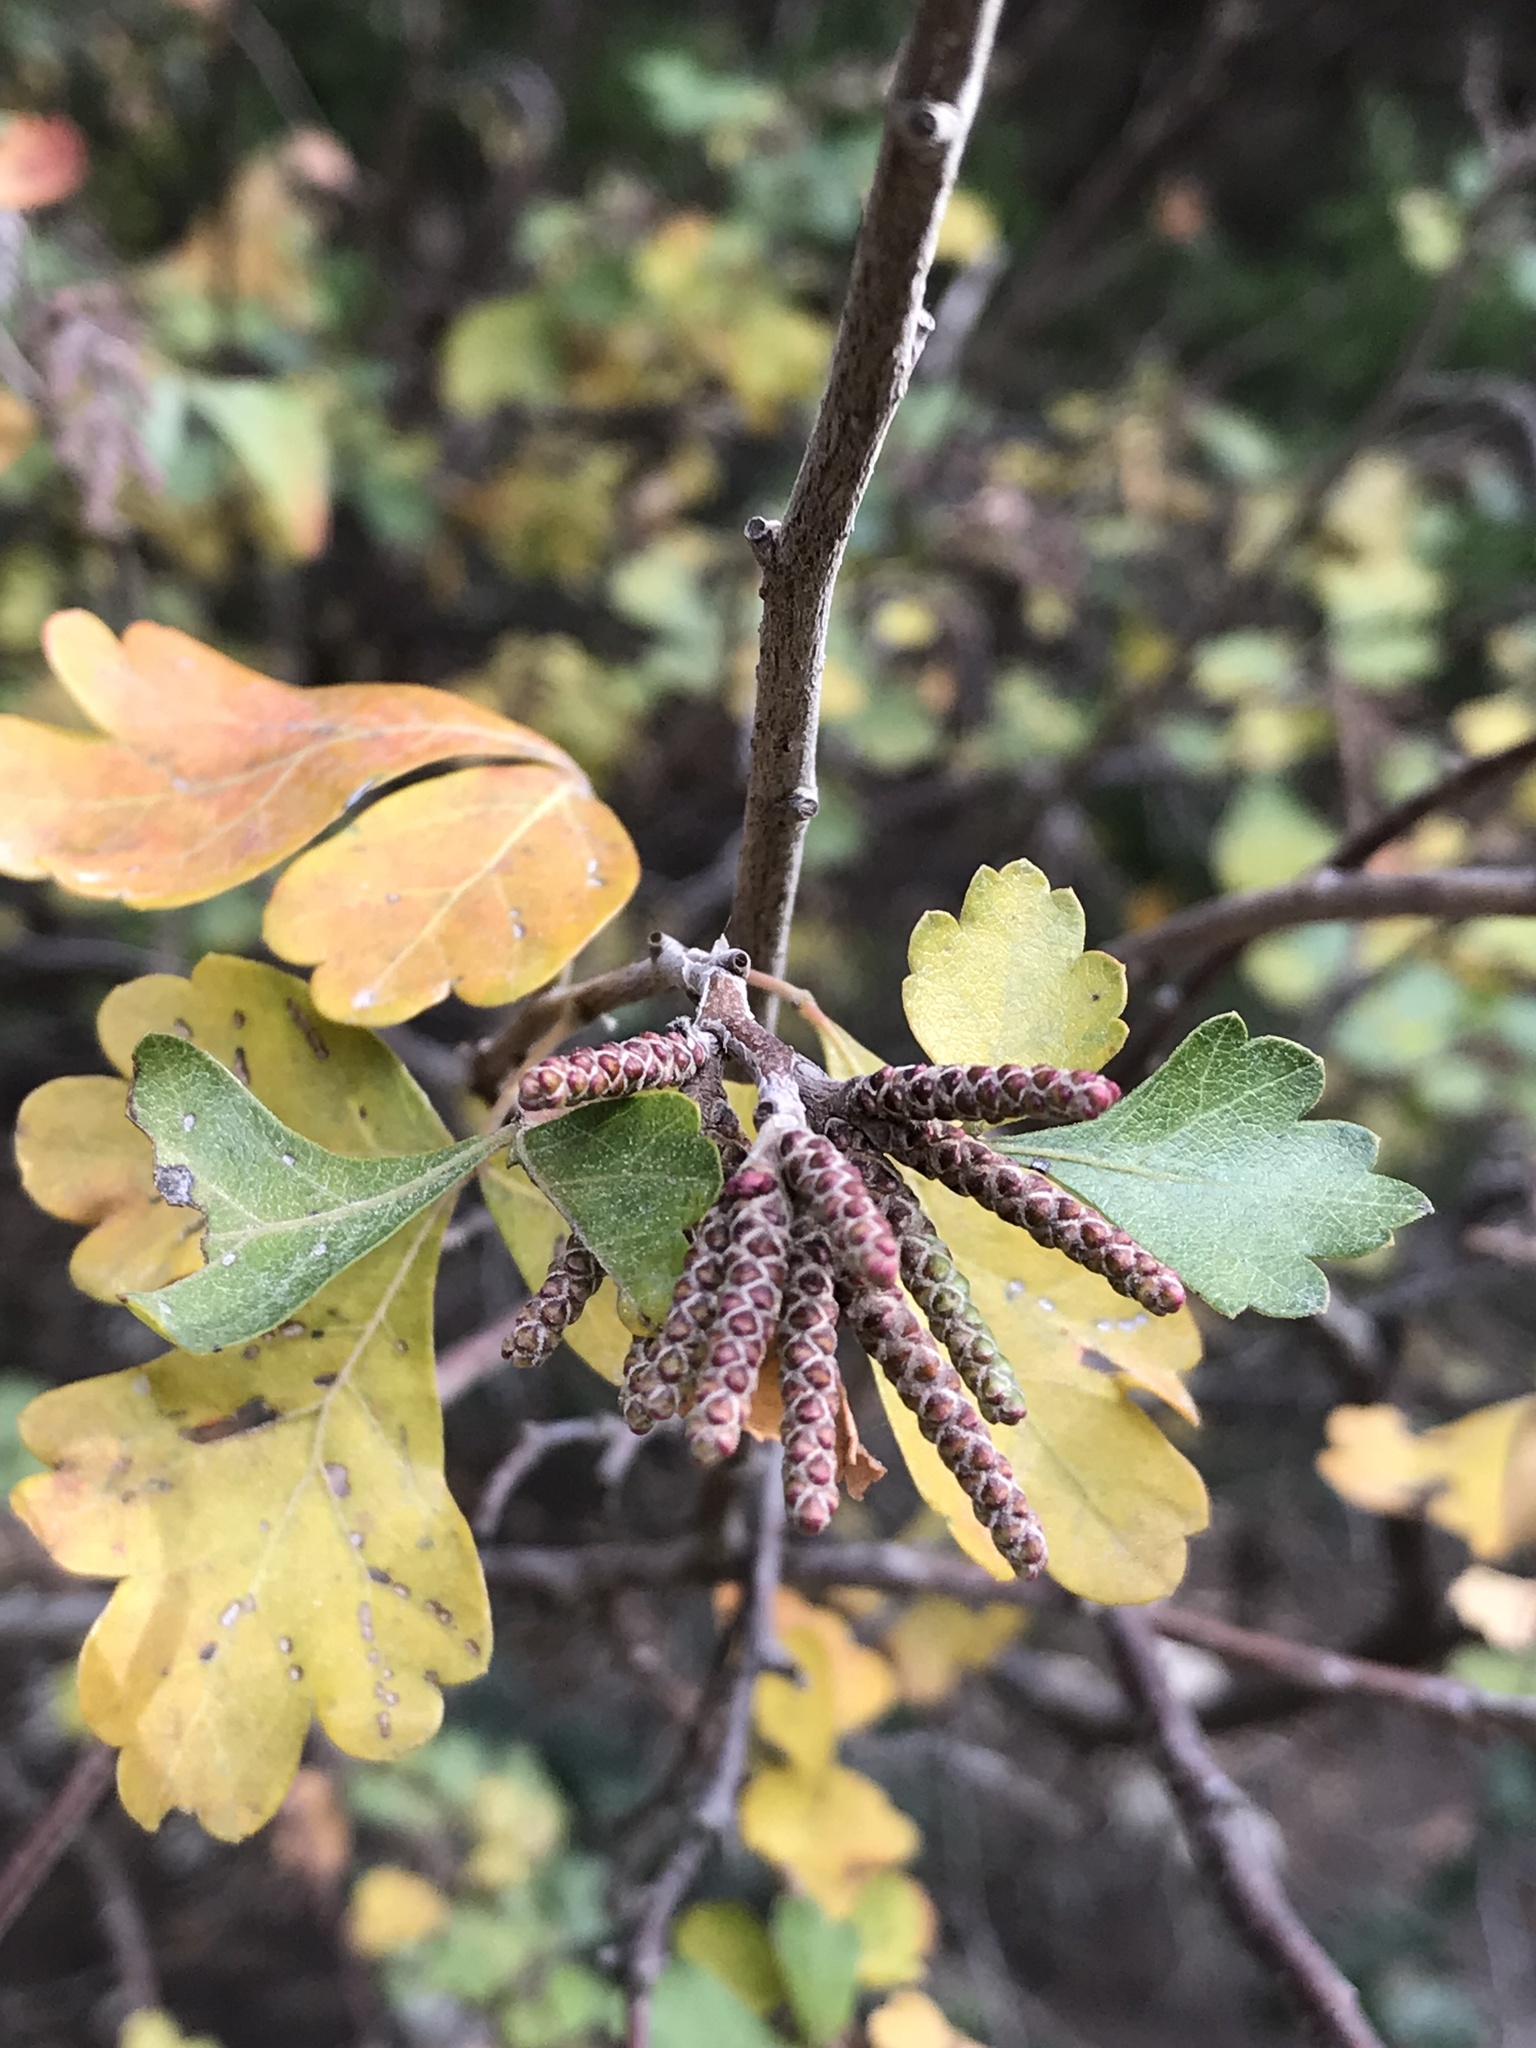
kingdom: Plantae
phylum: Tracheophyta
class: Magnoliopsida
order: Sapindales
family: Anacardiaceae
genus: Rhus
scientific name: Rhus aromatica
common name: Aromatic sumac
